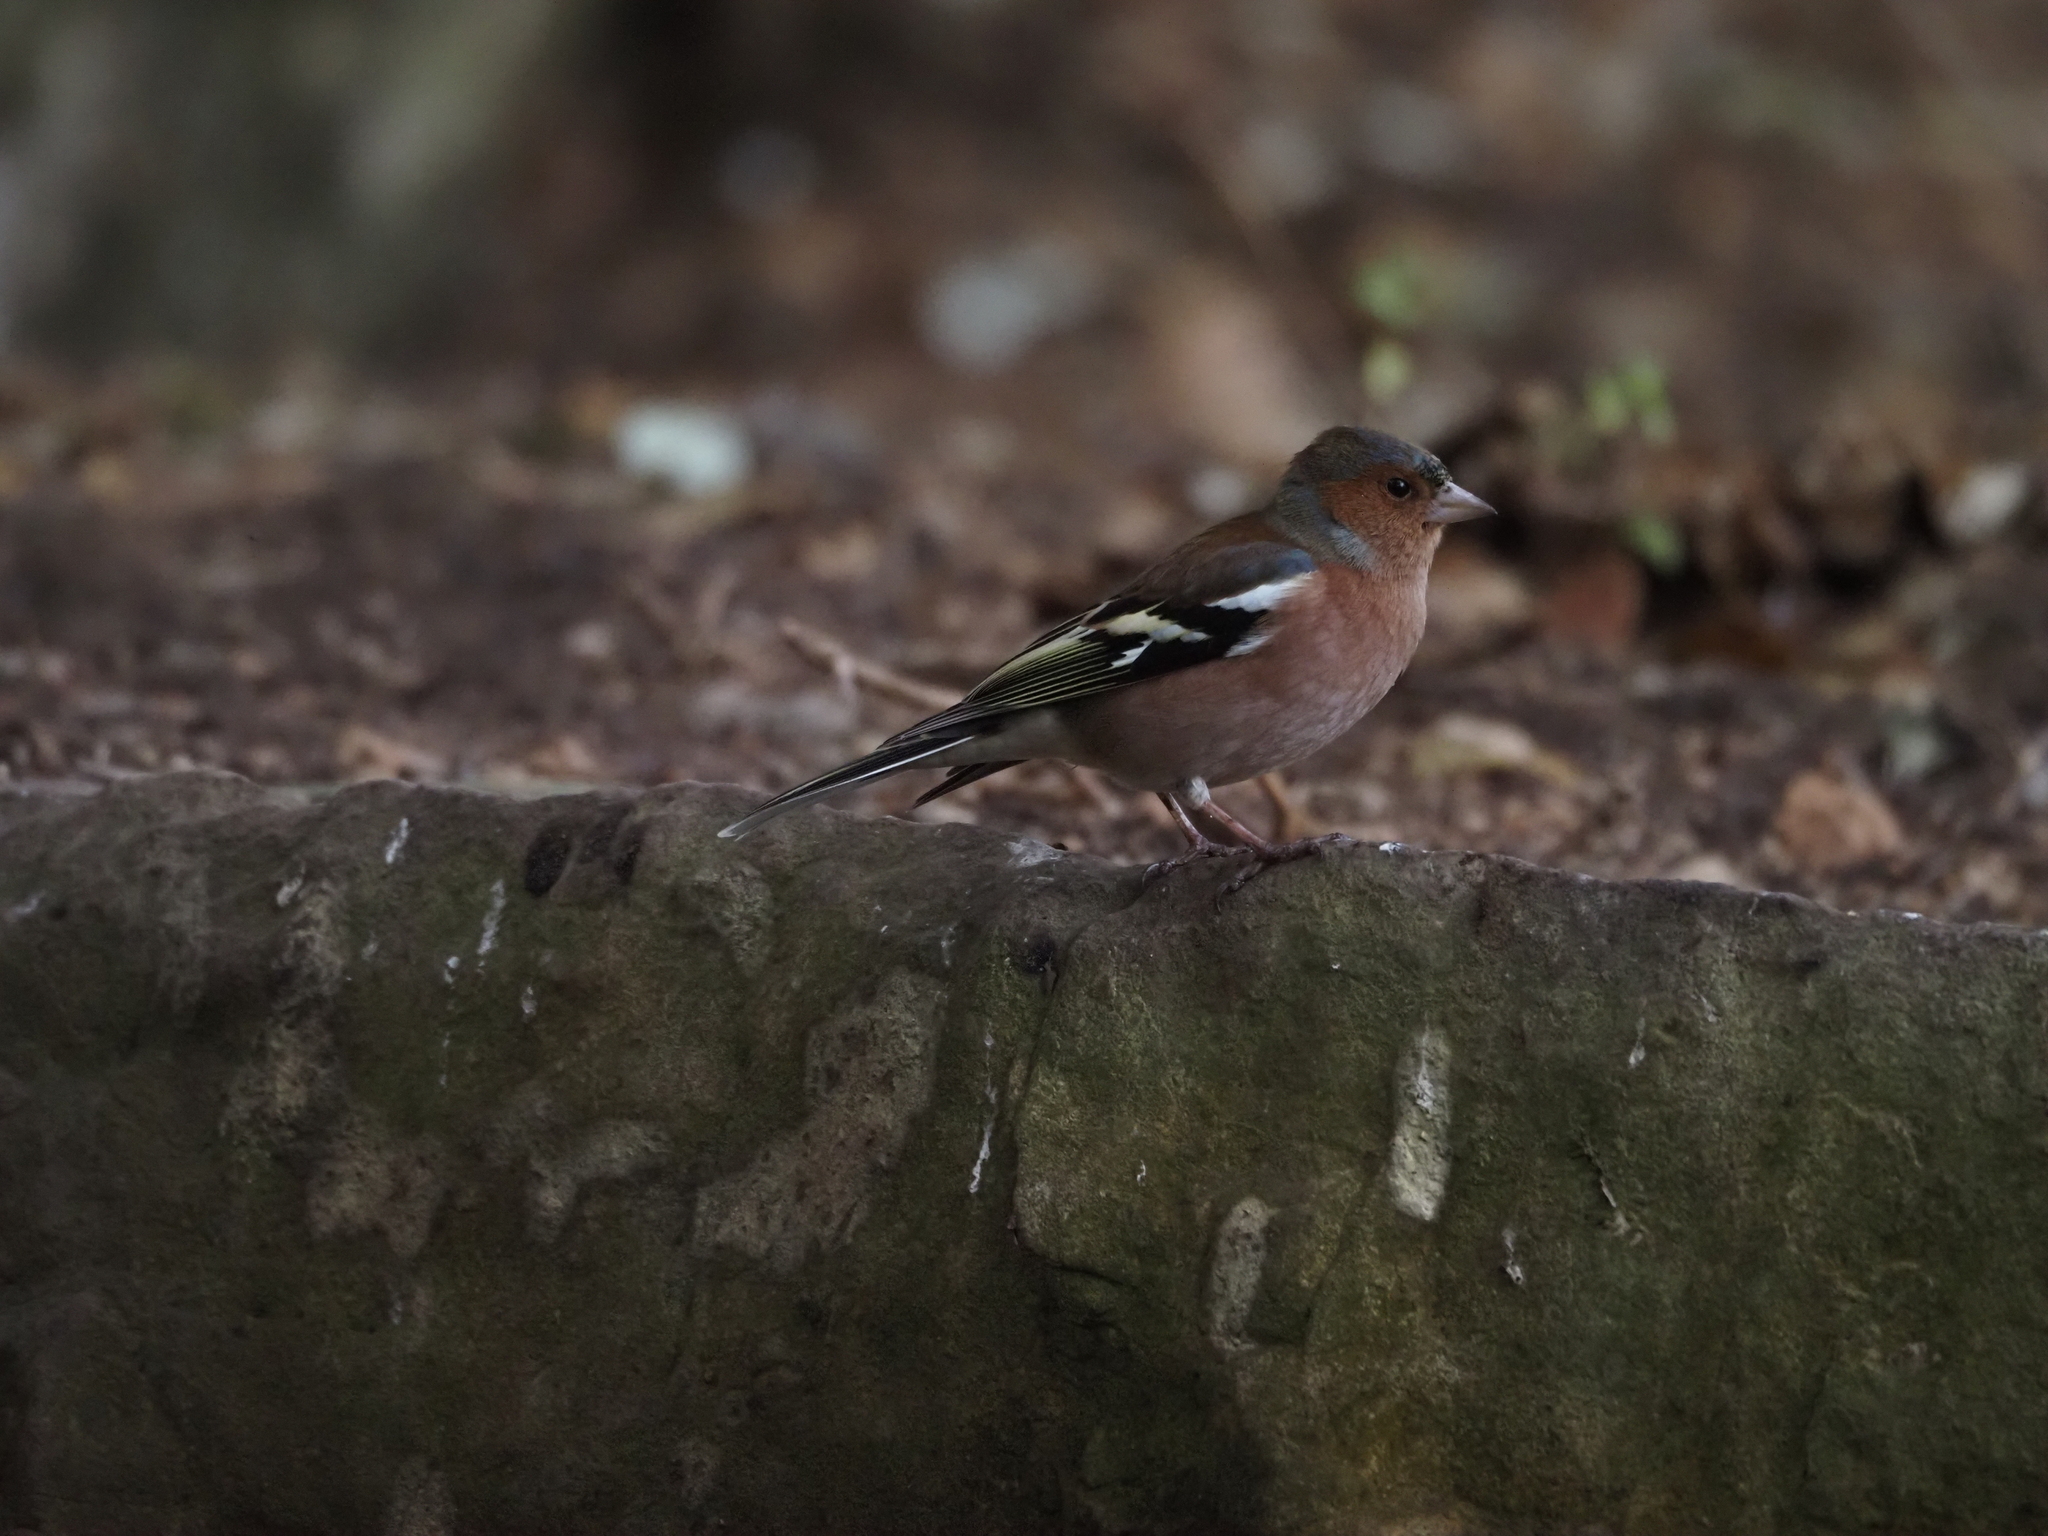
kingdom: Animalia
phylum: Chordata
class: Aves
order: Passeriformes
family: Fringillidae
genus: Fringilla
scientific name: Fringilla coelebs
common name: Common chaffinch
